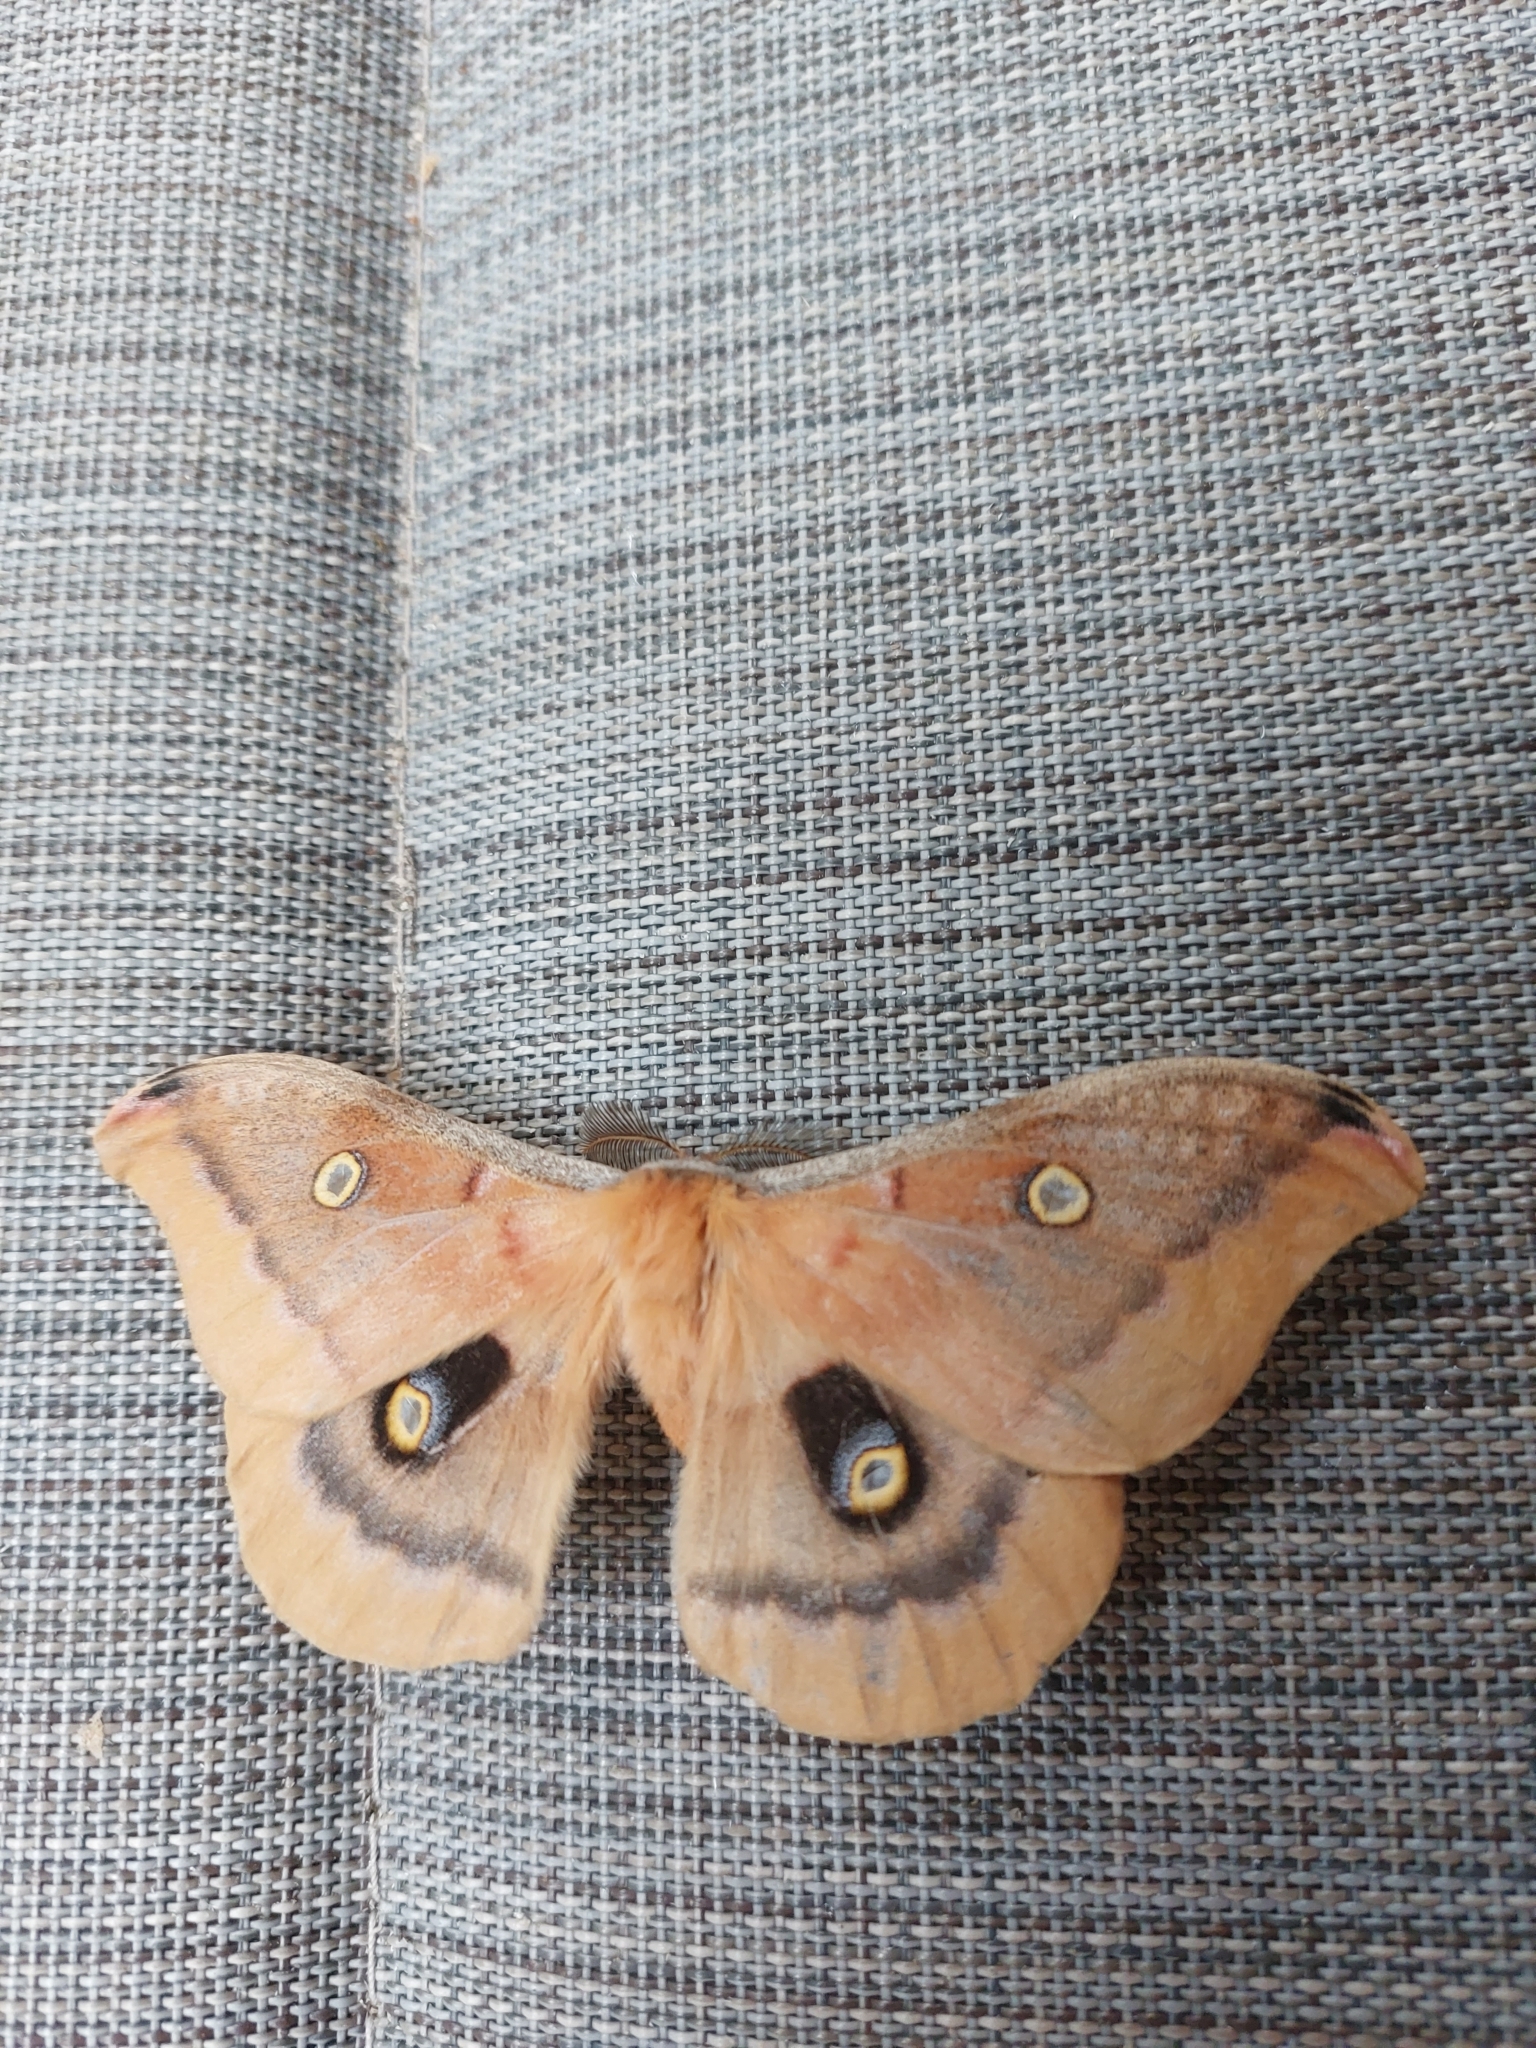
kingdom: Animalia
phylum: Arthropoda
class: Insecta
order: Lepidoptera
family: Saturniidae
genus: Antheraea
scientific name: Antheraea polyphemus
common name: Polyphemus moth
